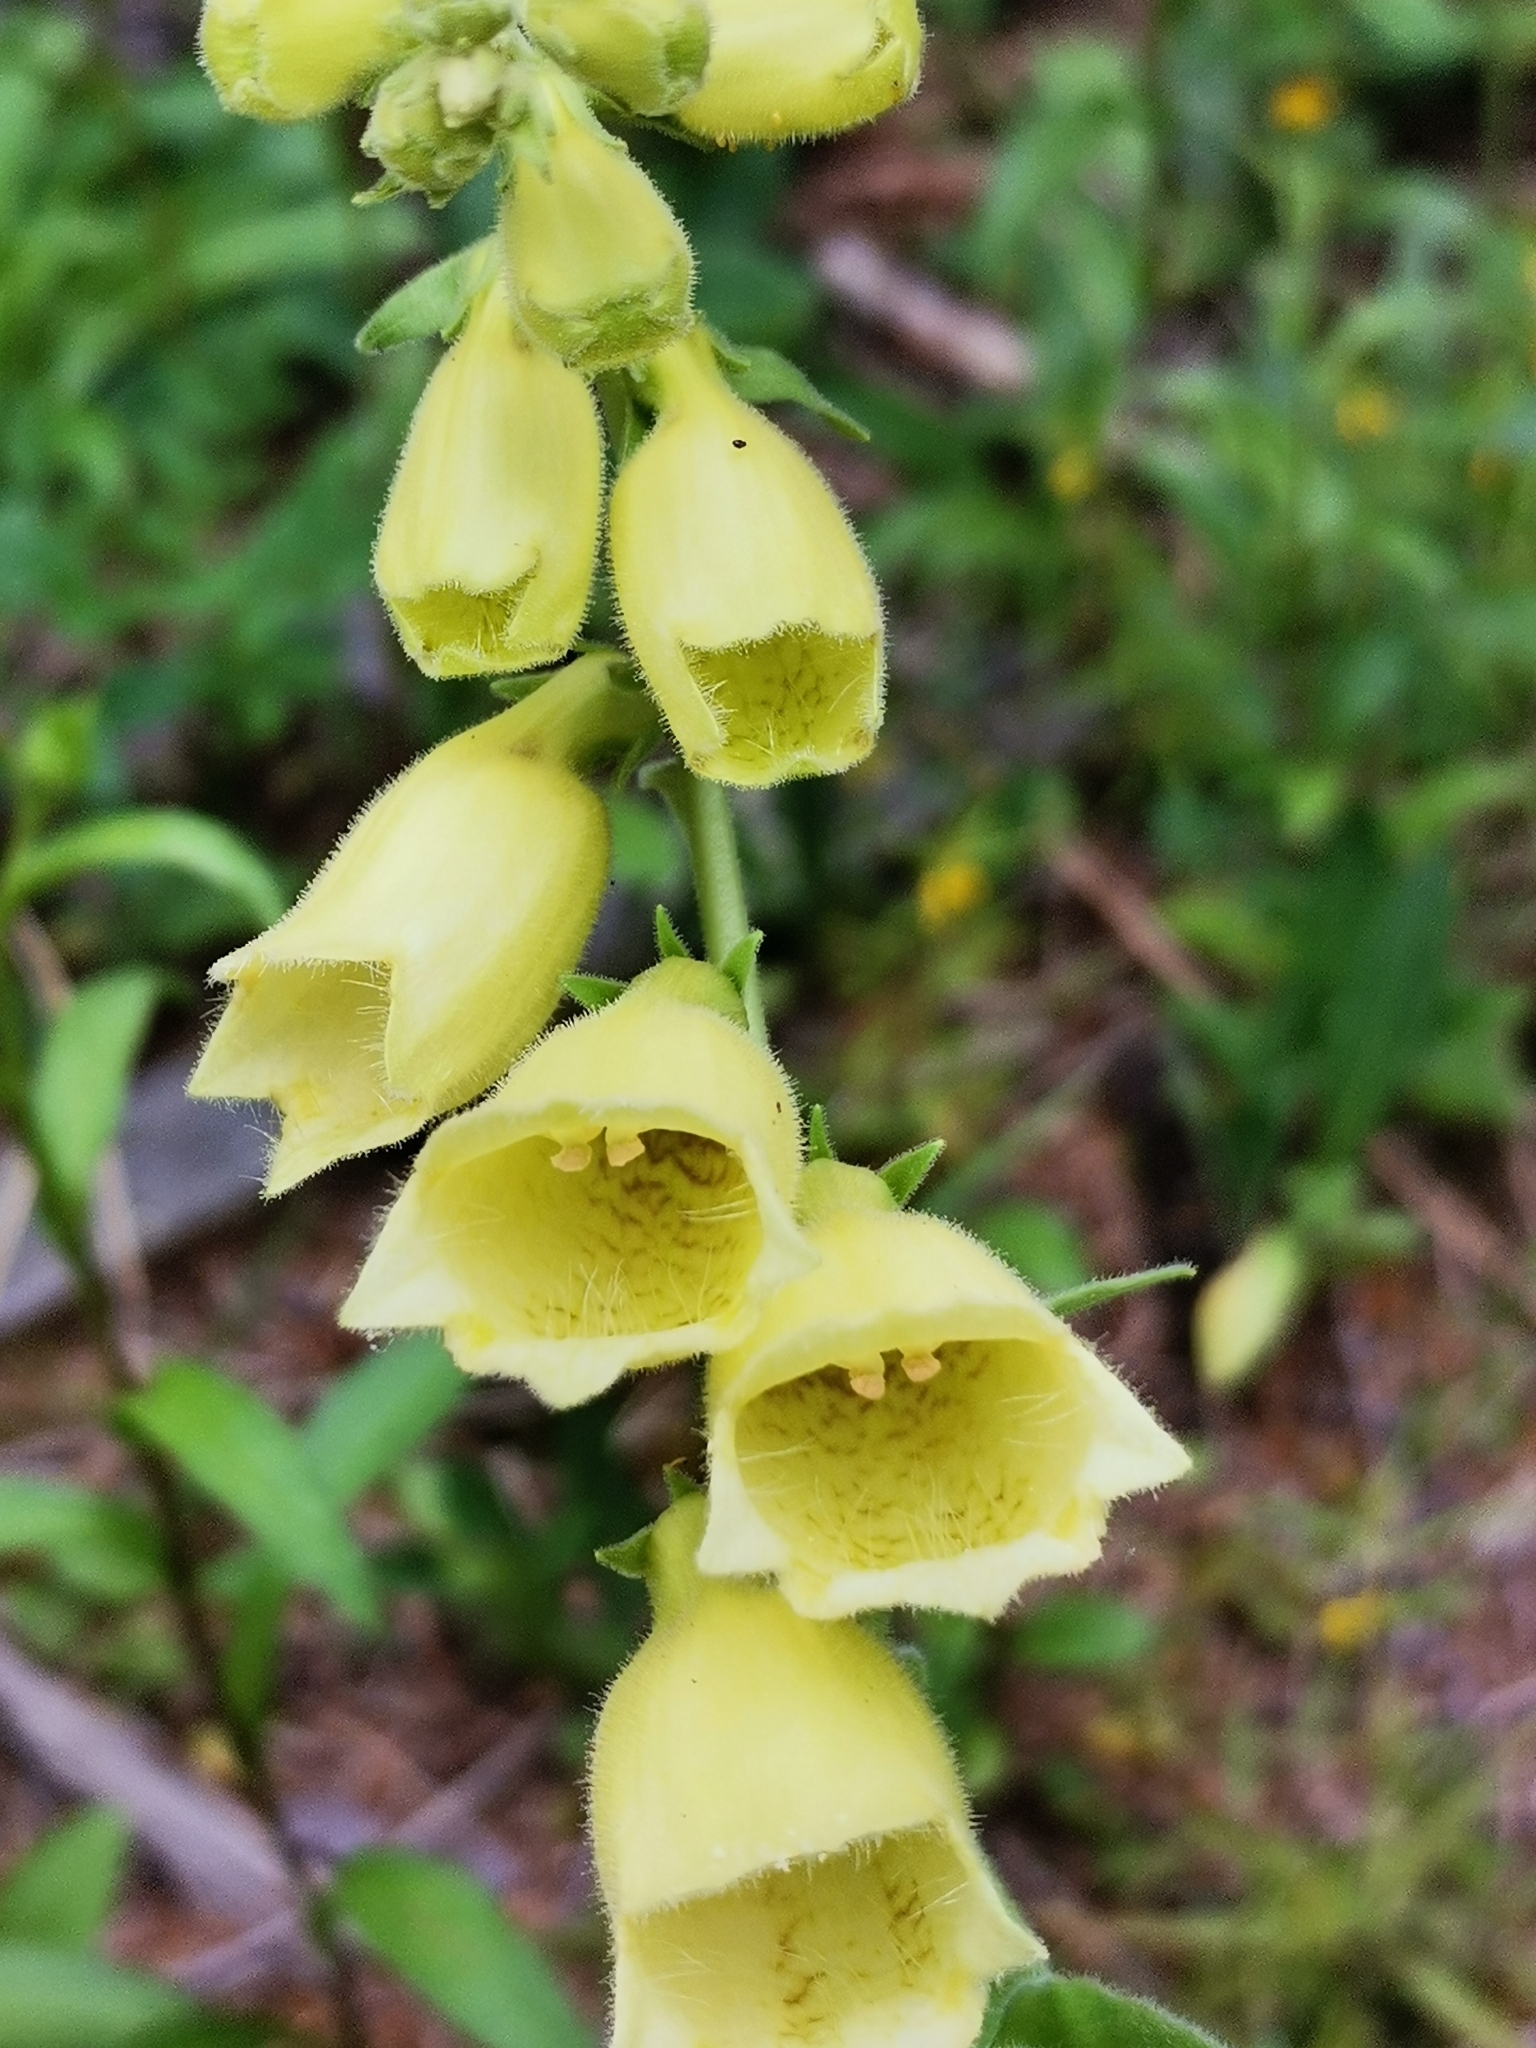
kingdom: Plantae
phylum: Tracheophyta
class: Magnoliopsida
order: Lamiales
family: Plantaginaceae
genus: Digitalis
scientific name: Digitalis grandiflora
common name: Yellow foxglove
